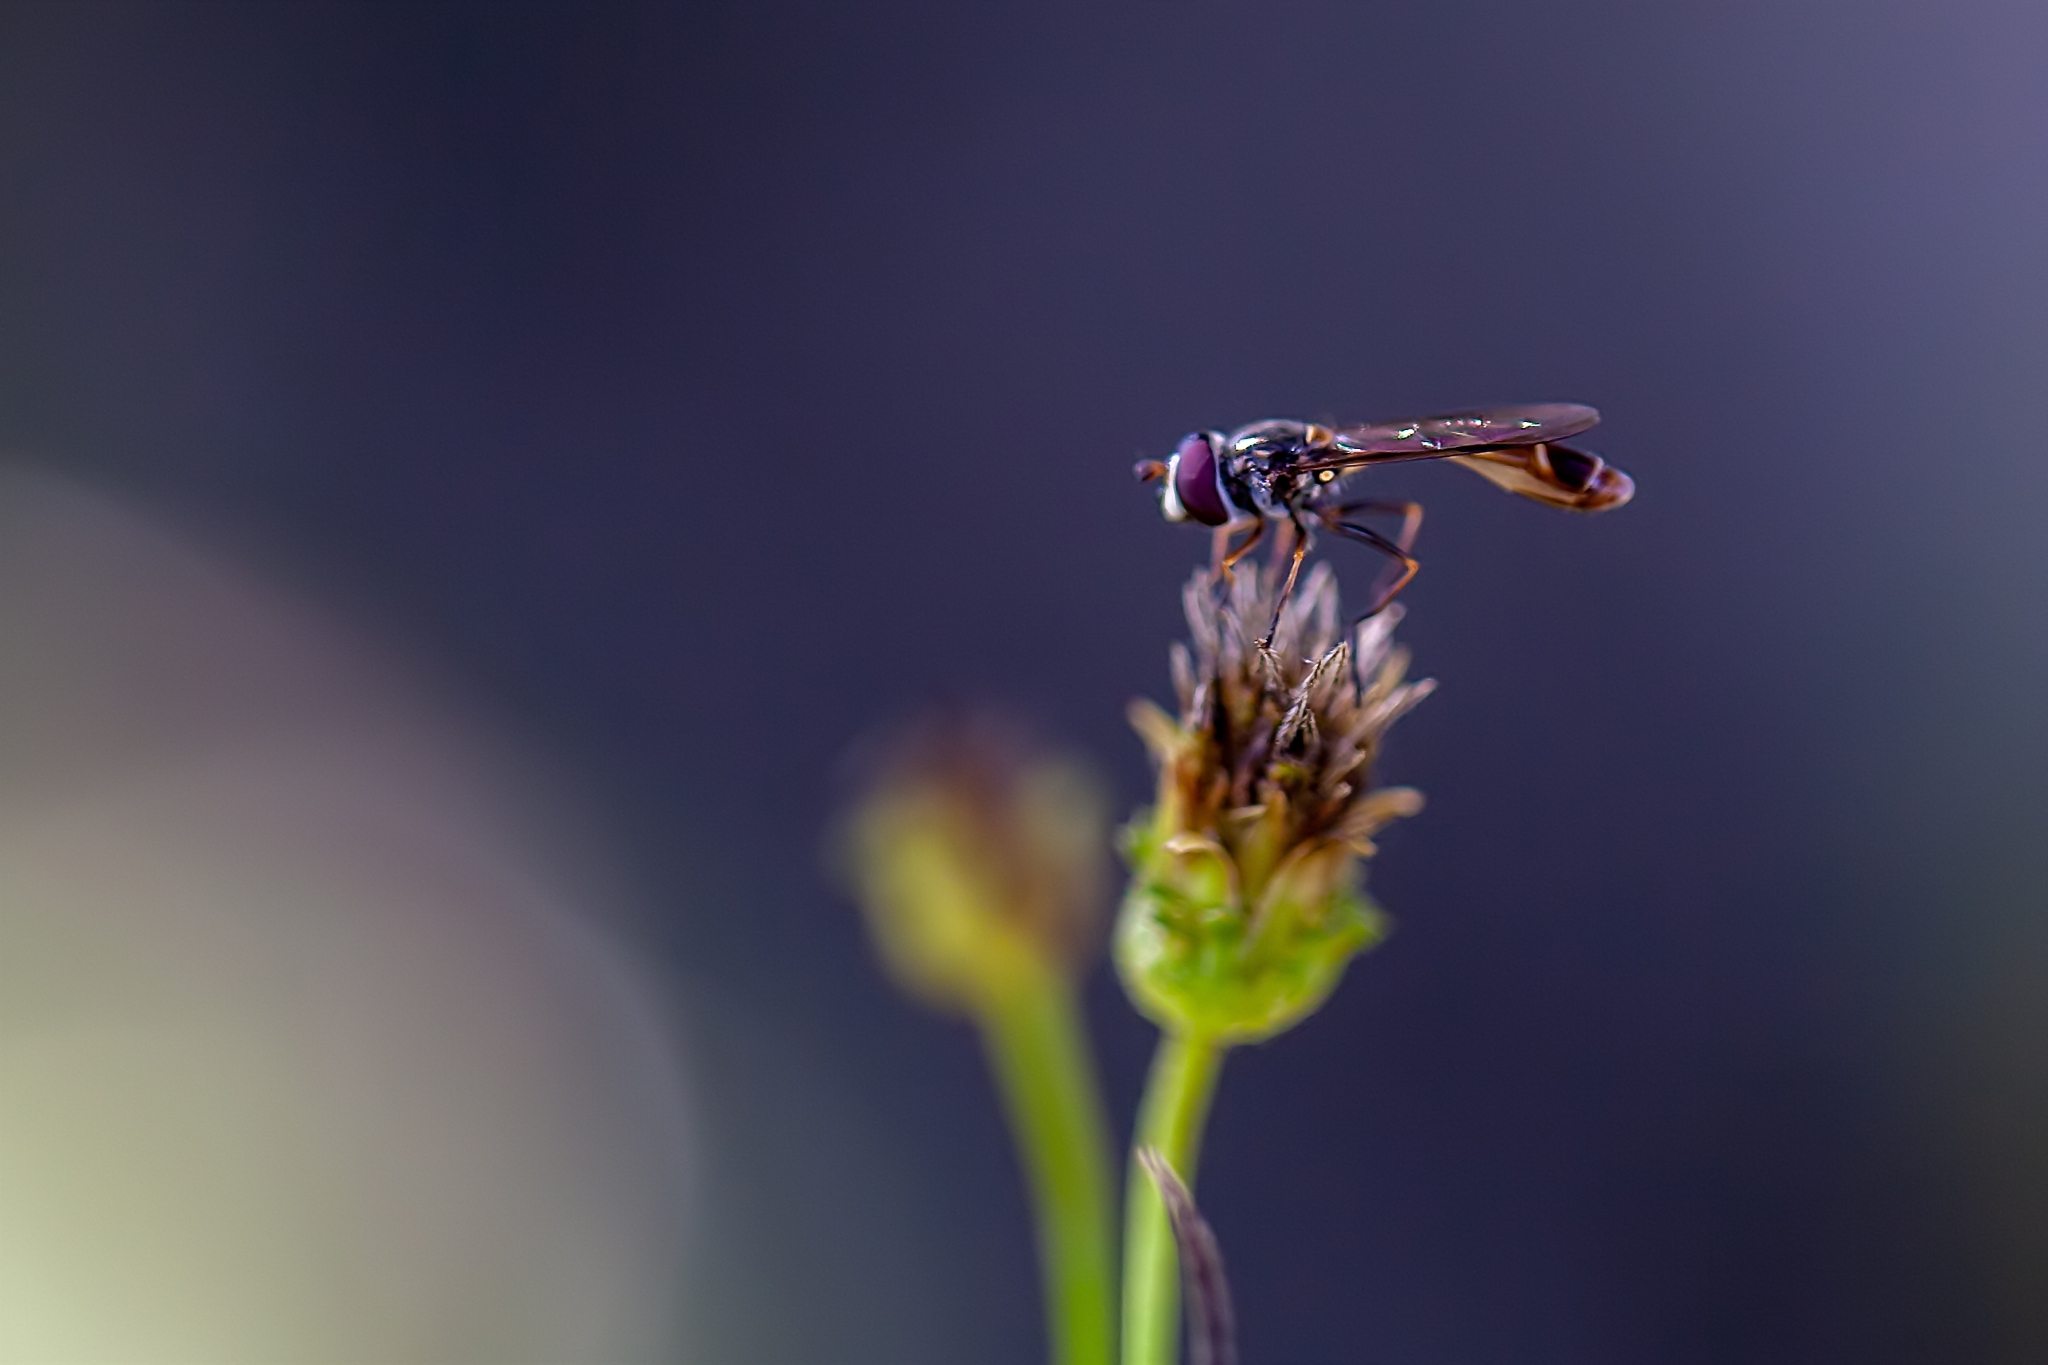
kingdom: Animalia
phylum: Arthropoda
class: Insecta
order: Diptera
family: Syrphidae
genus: Dioprosopa
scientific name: Dioprosopa clavatus
